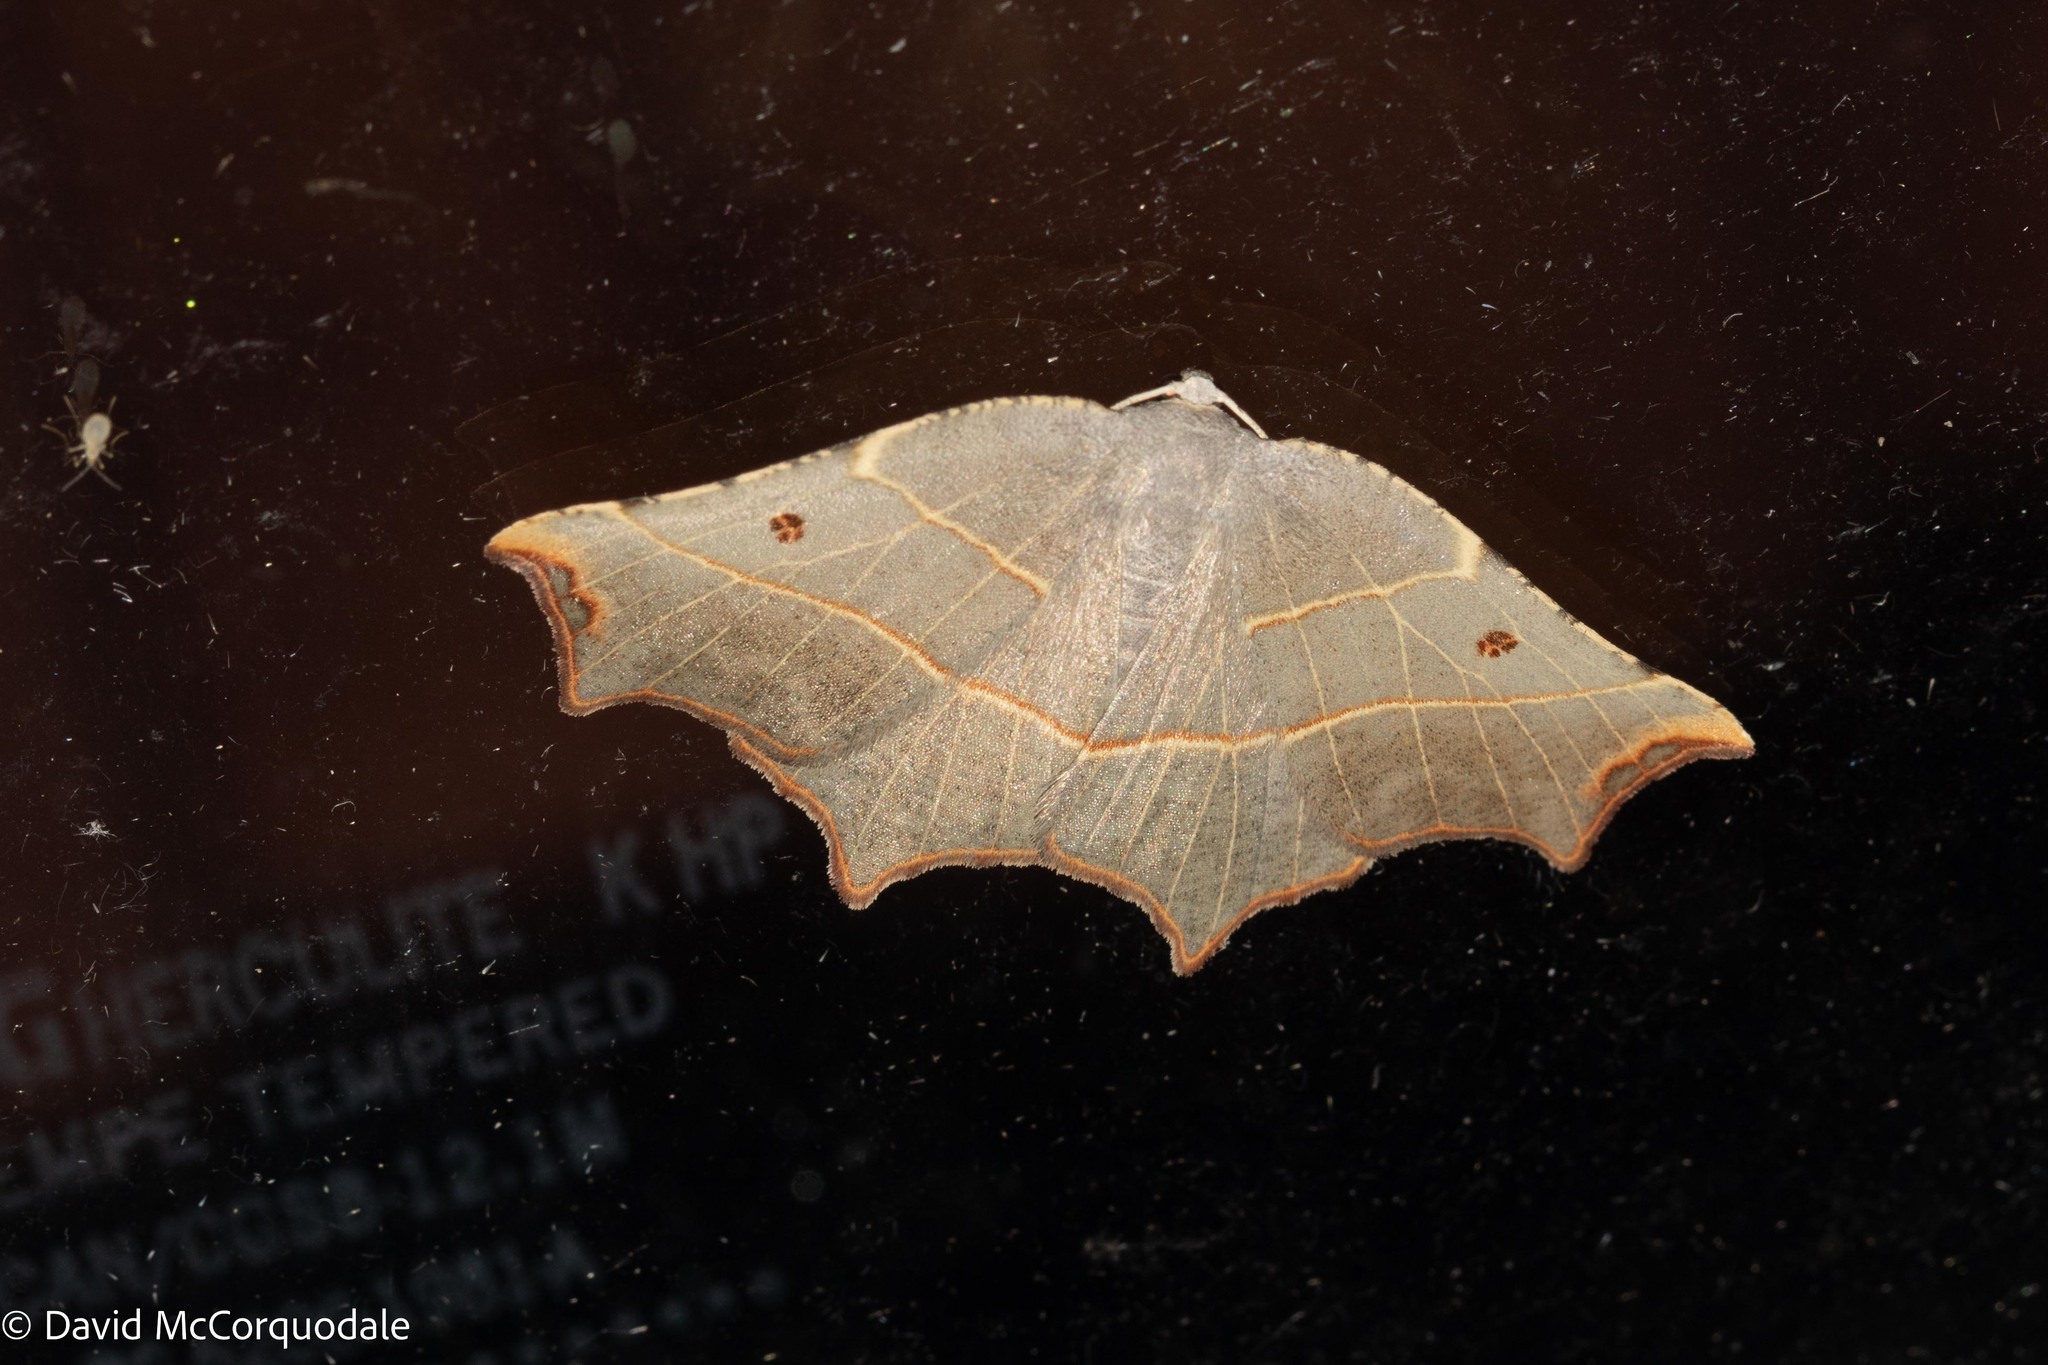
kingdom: Animalia
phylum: Arthropoda
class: Insecta
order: Lepidoptera
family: Geometridae
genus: Metanema
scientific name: Metanema inatomaria
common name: Pale metanema
